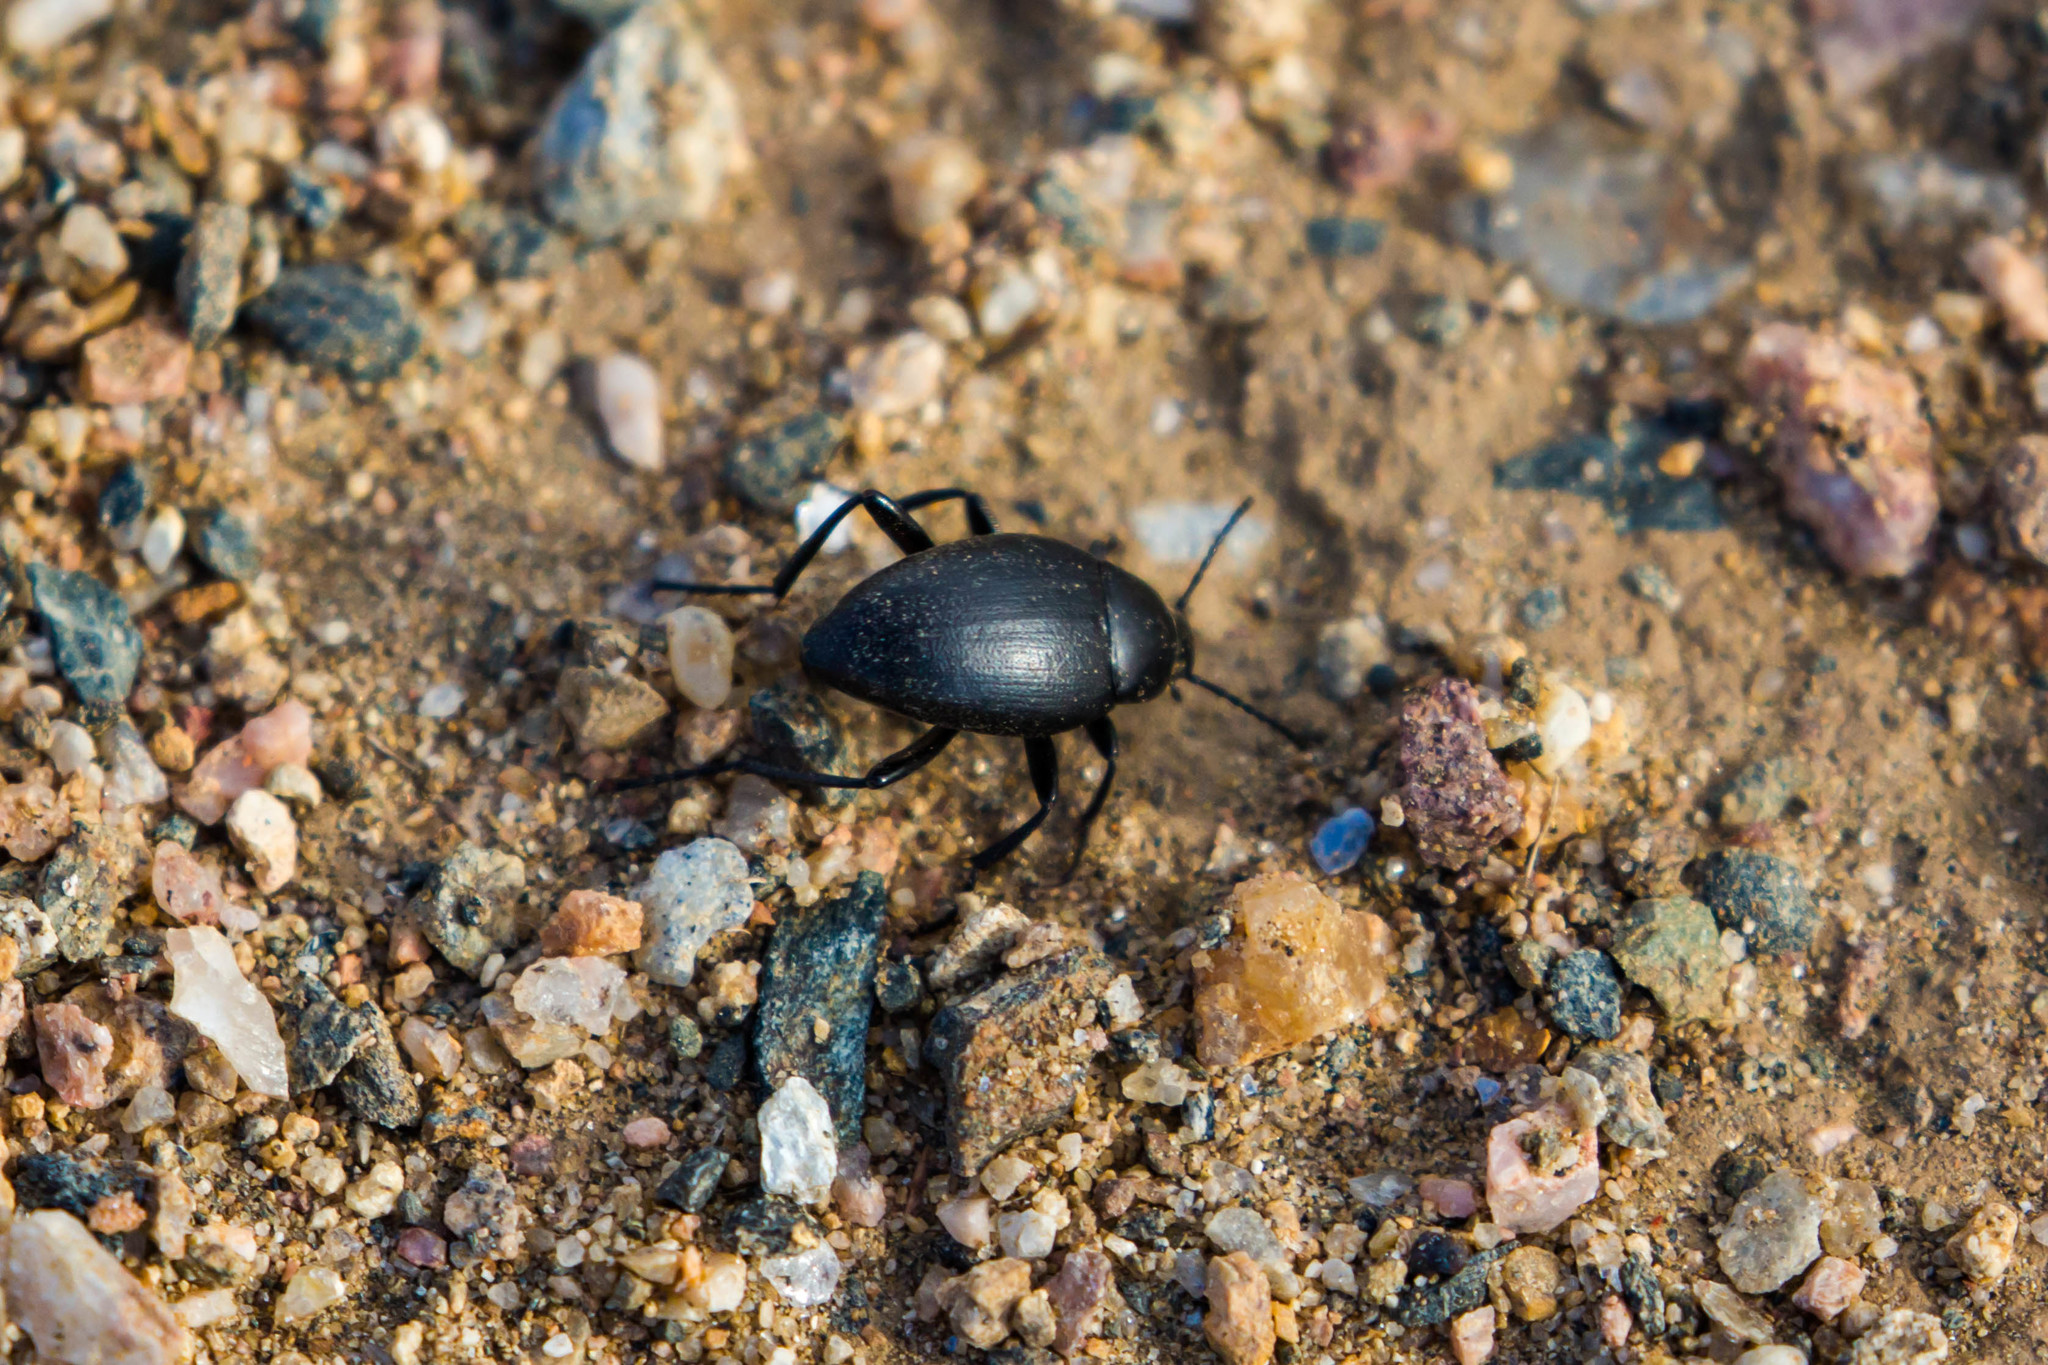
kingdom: Animalia
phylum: Arthropoda
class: Insecta
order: Coleoptera
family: Tenebrionidae
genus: Eleodes
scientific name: Eleodes fusiformis
